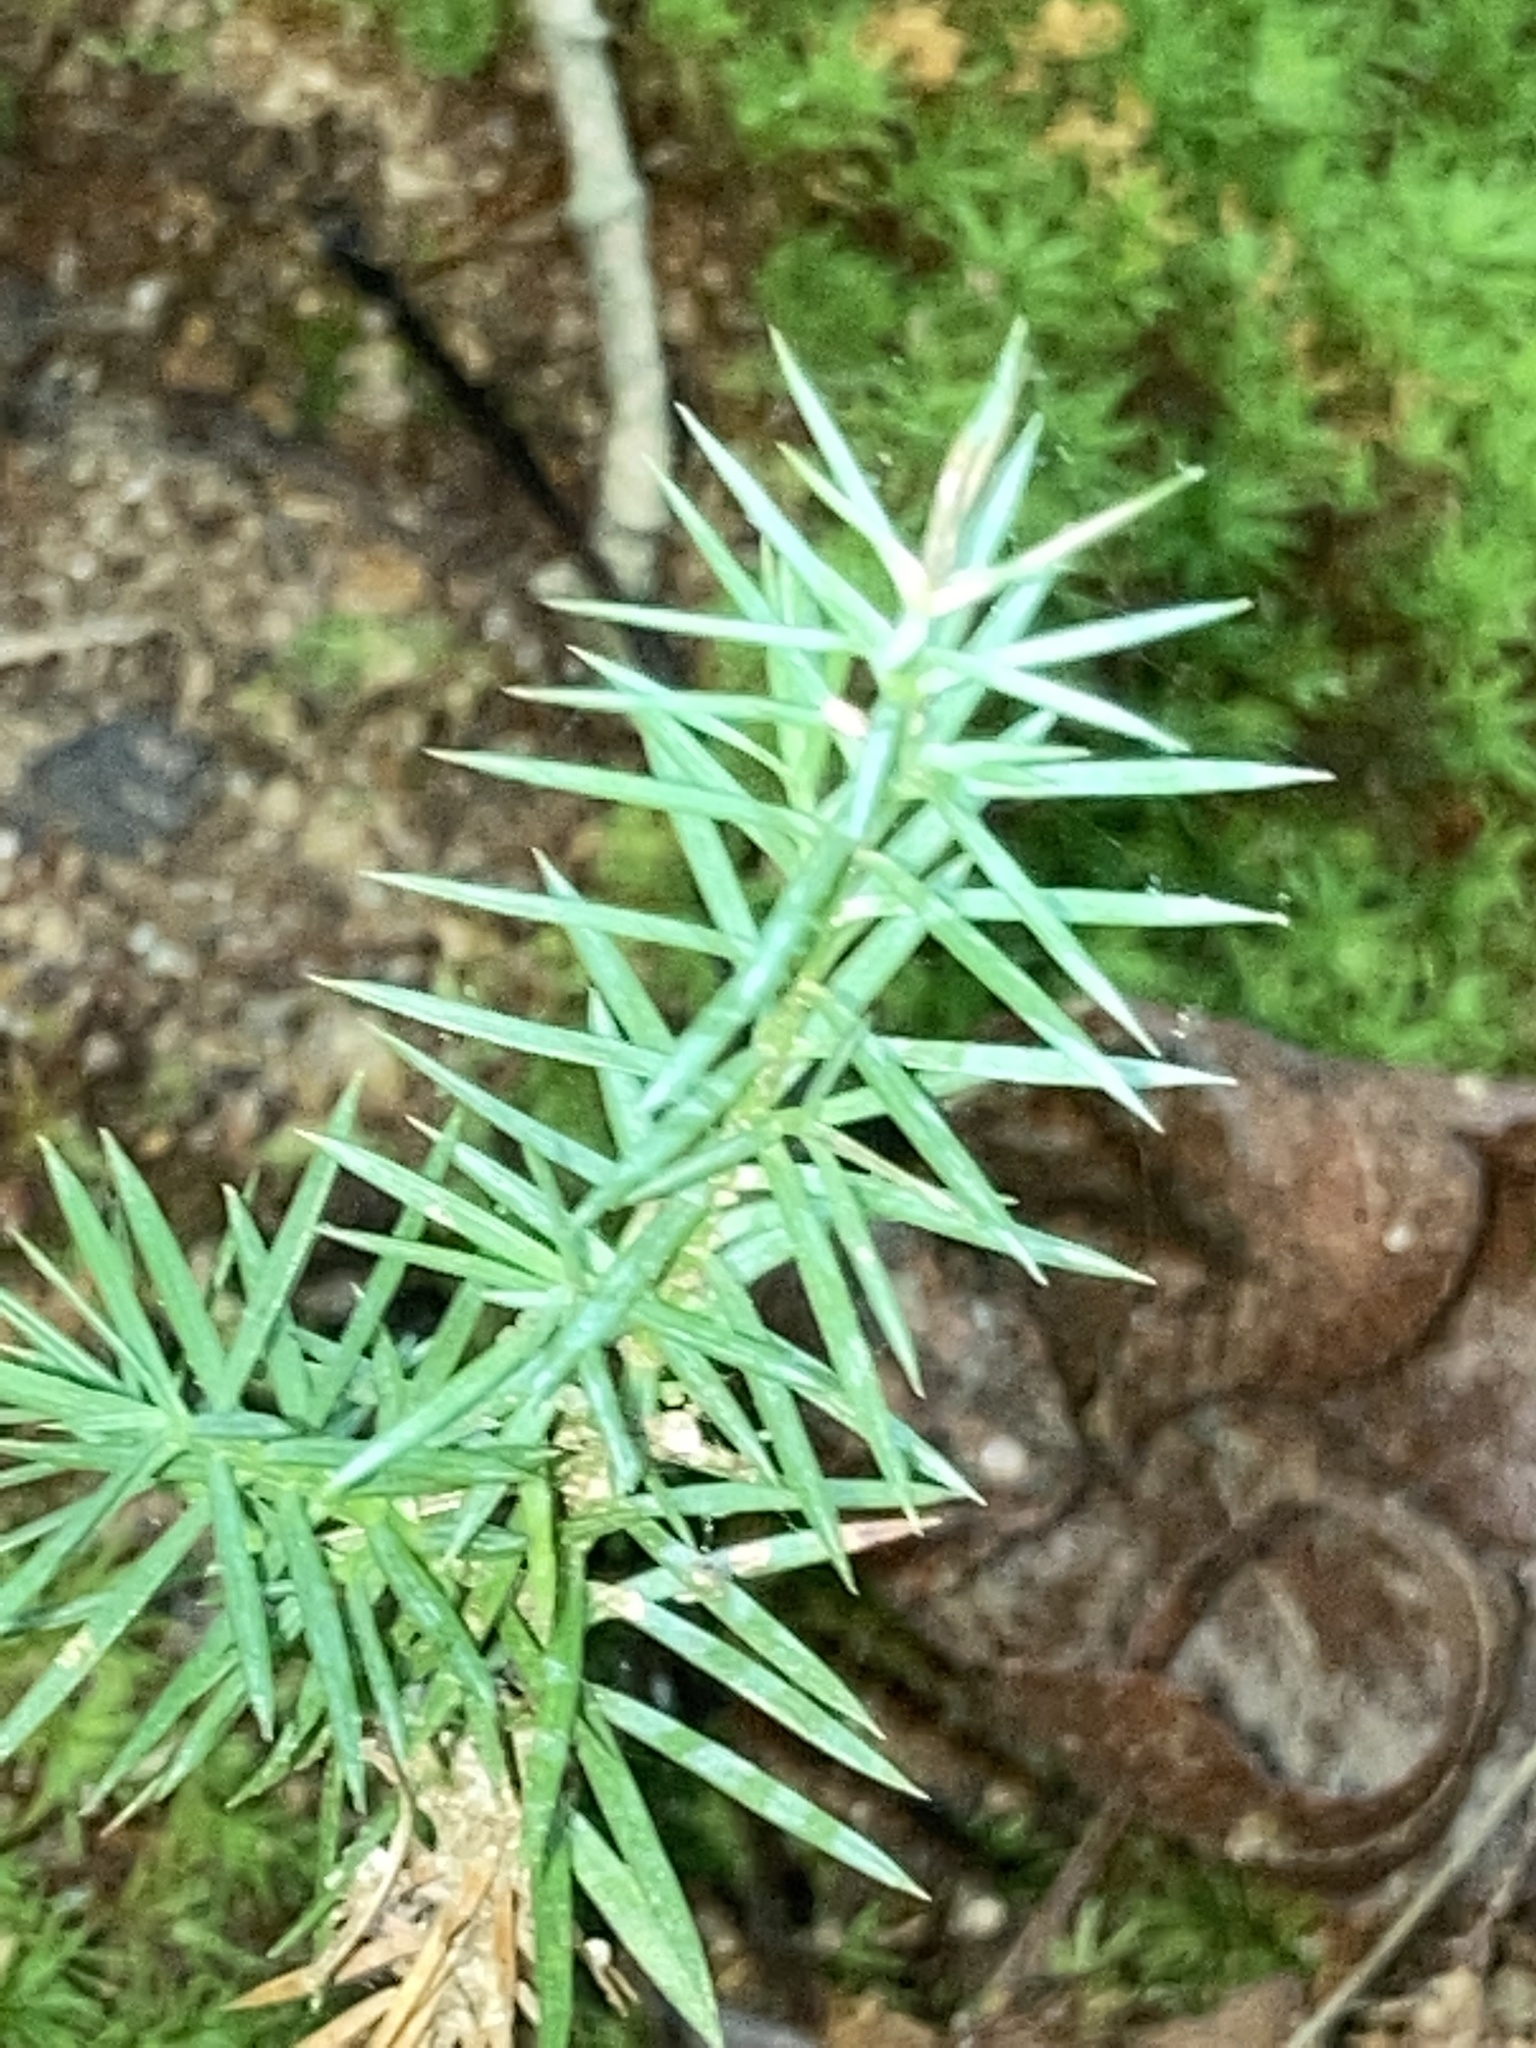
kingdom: Plantae
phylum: Tracheophyta
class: Pinopsida
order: Pinales
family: Cupressaceae
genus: Juniperus
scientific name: Juniperus virginiana
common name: Red juniper
